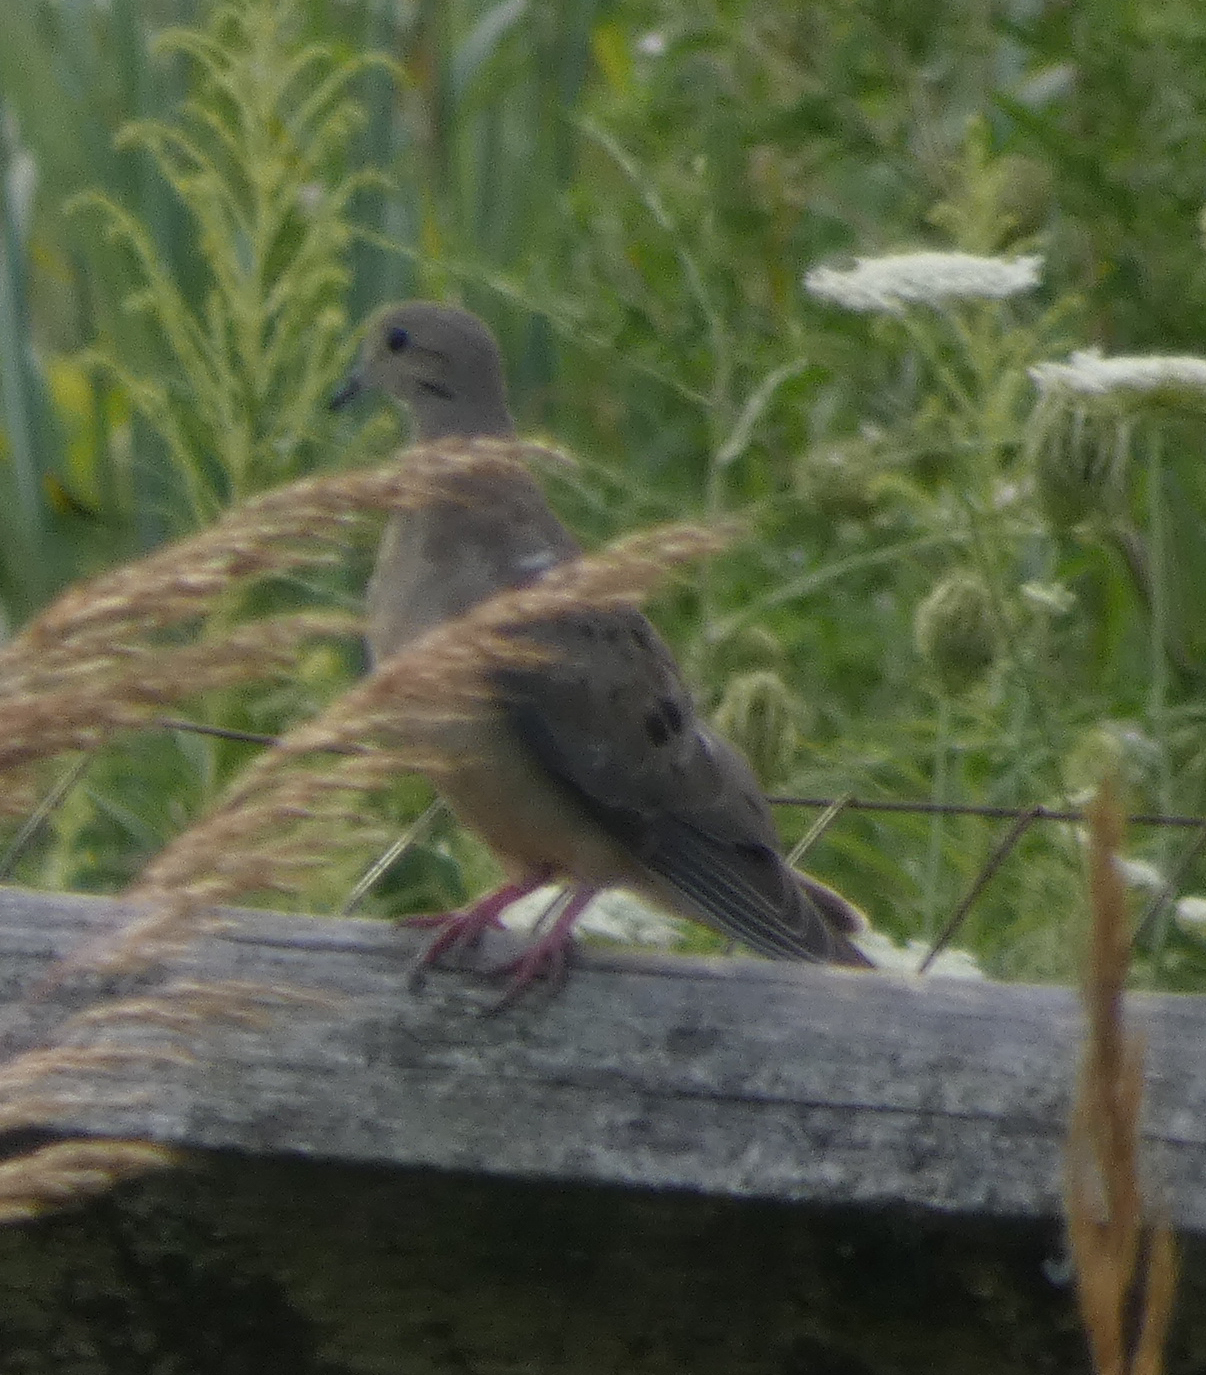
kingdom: Animalia
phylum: Chordata
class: Aves
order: Columbiformes
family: Columbidae
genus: Zenaida
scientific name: Zenaida macroura
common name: Mourning dove
